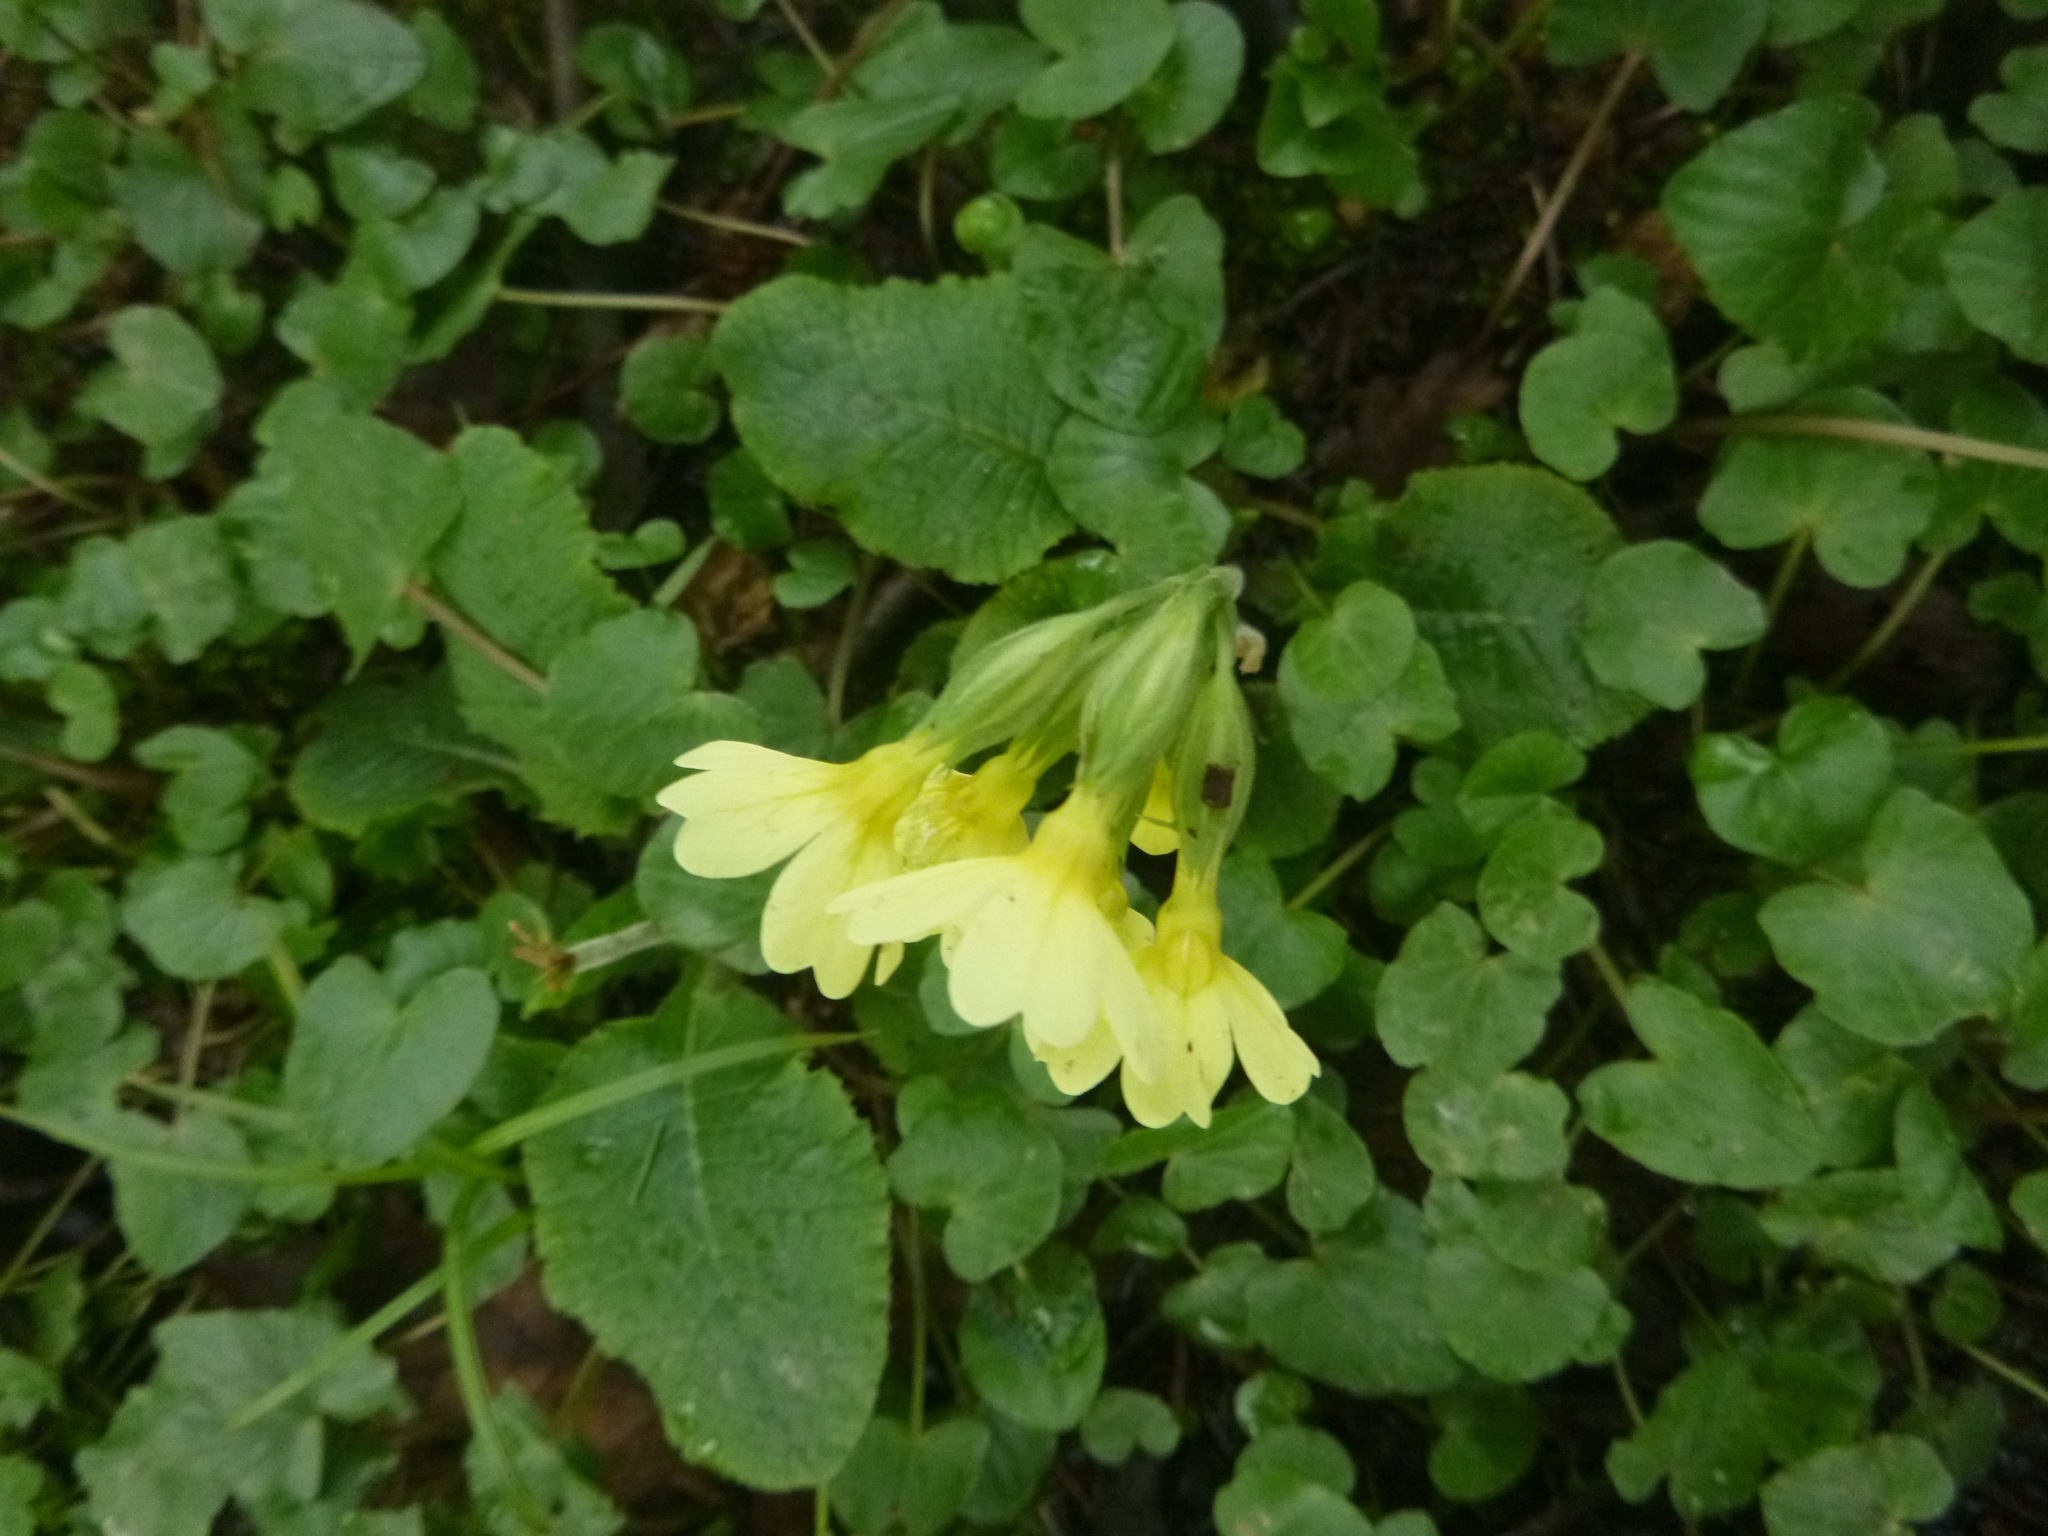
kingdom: Plantae
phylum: Tracheophyta
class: Magnoliopsida
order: Ericales
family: Primulaceae
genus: Primula
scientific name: Primula elatior
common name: Oxlip
